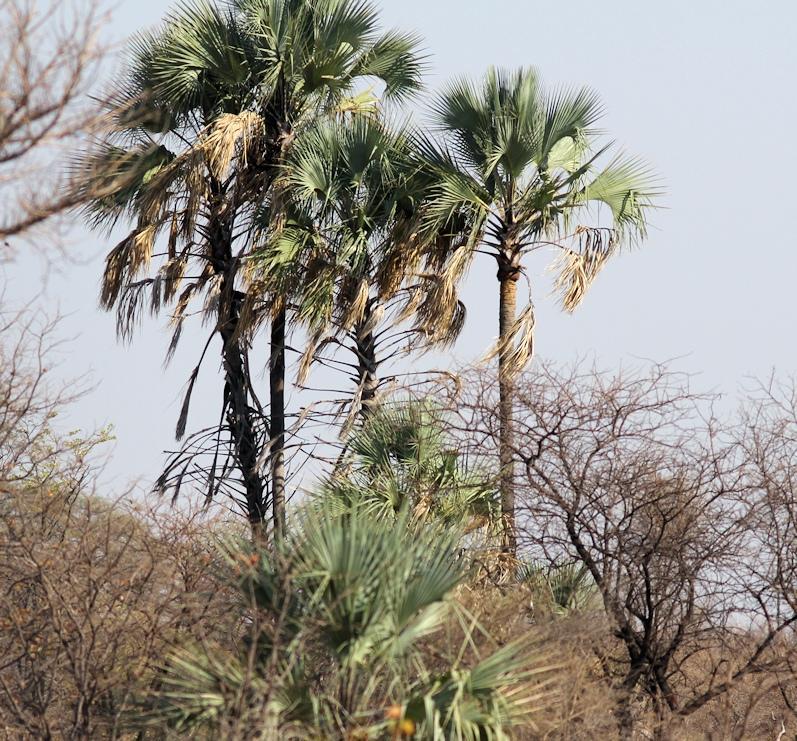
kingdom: Plantae
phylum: Tracheophyta
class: Liliopsida
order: Arecales
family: Arecaceae
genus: Hyphaene
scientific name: Hyphaene petersiana
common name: African ivory nut palm
